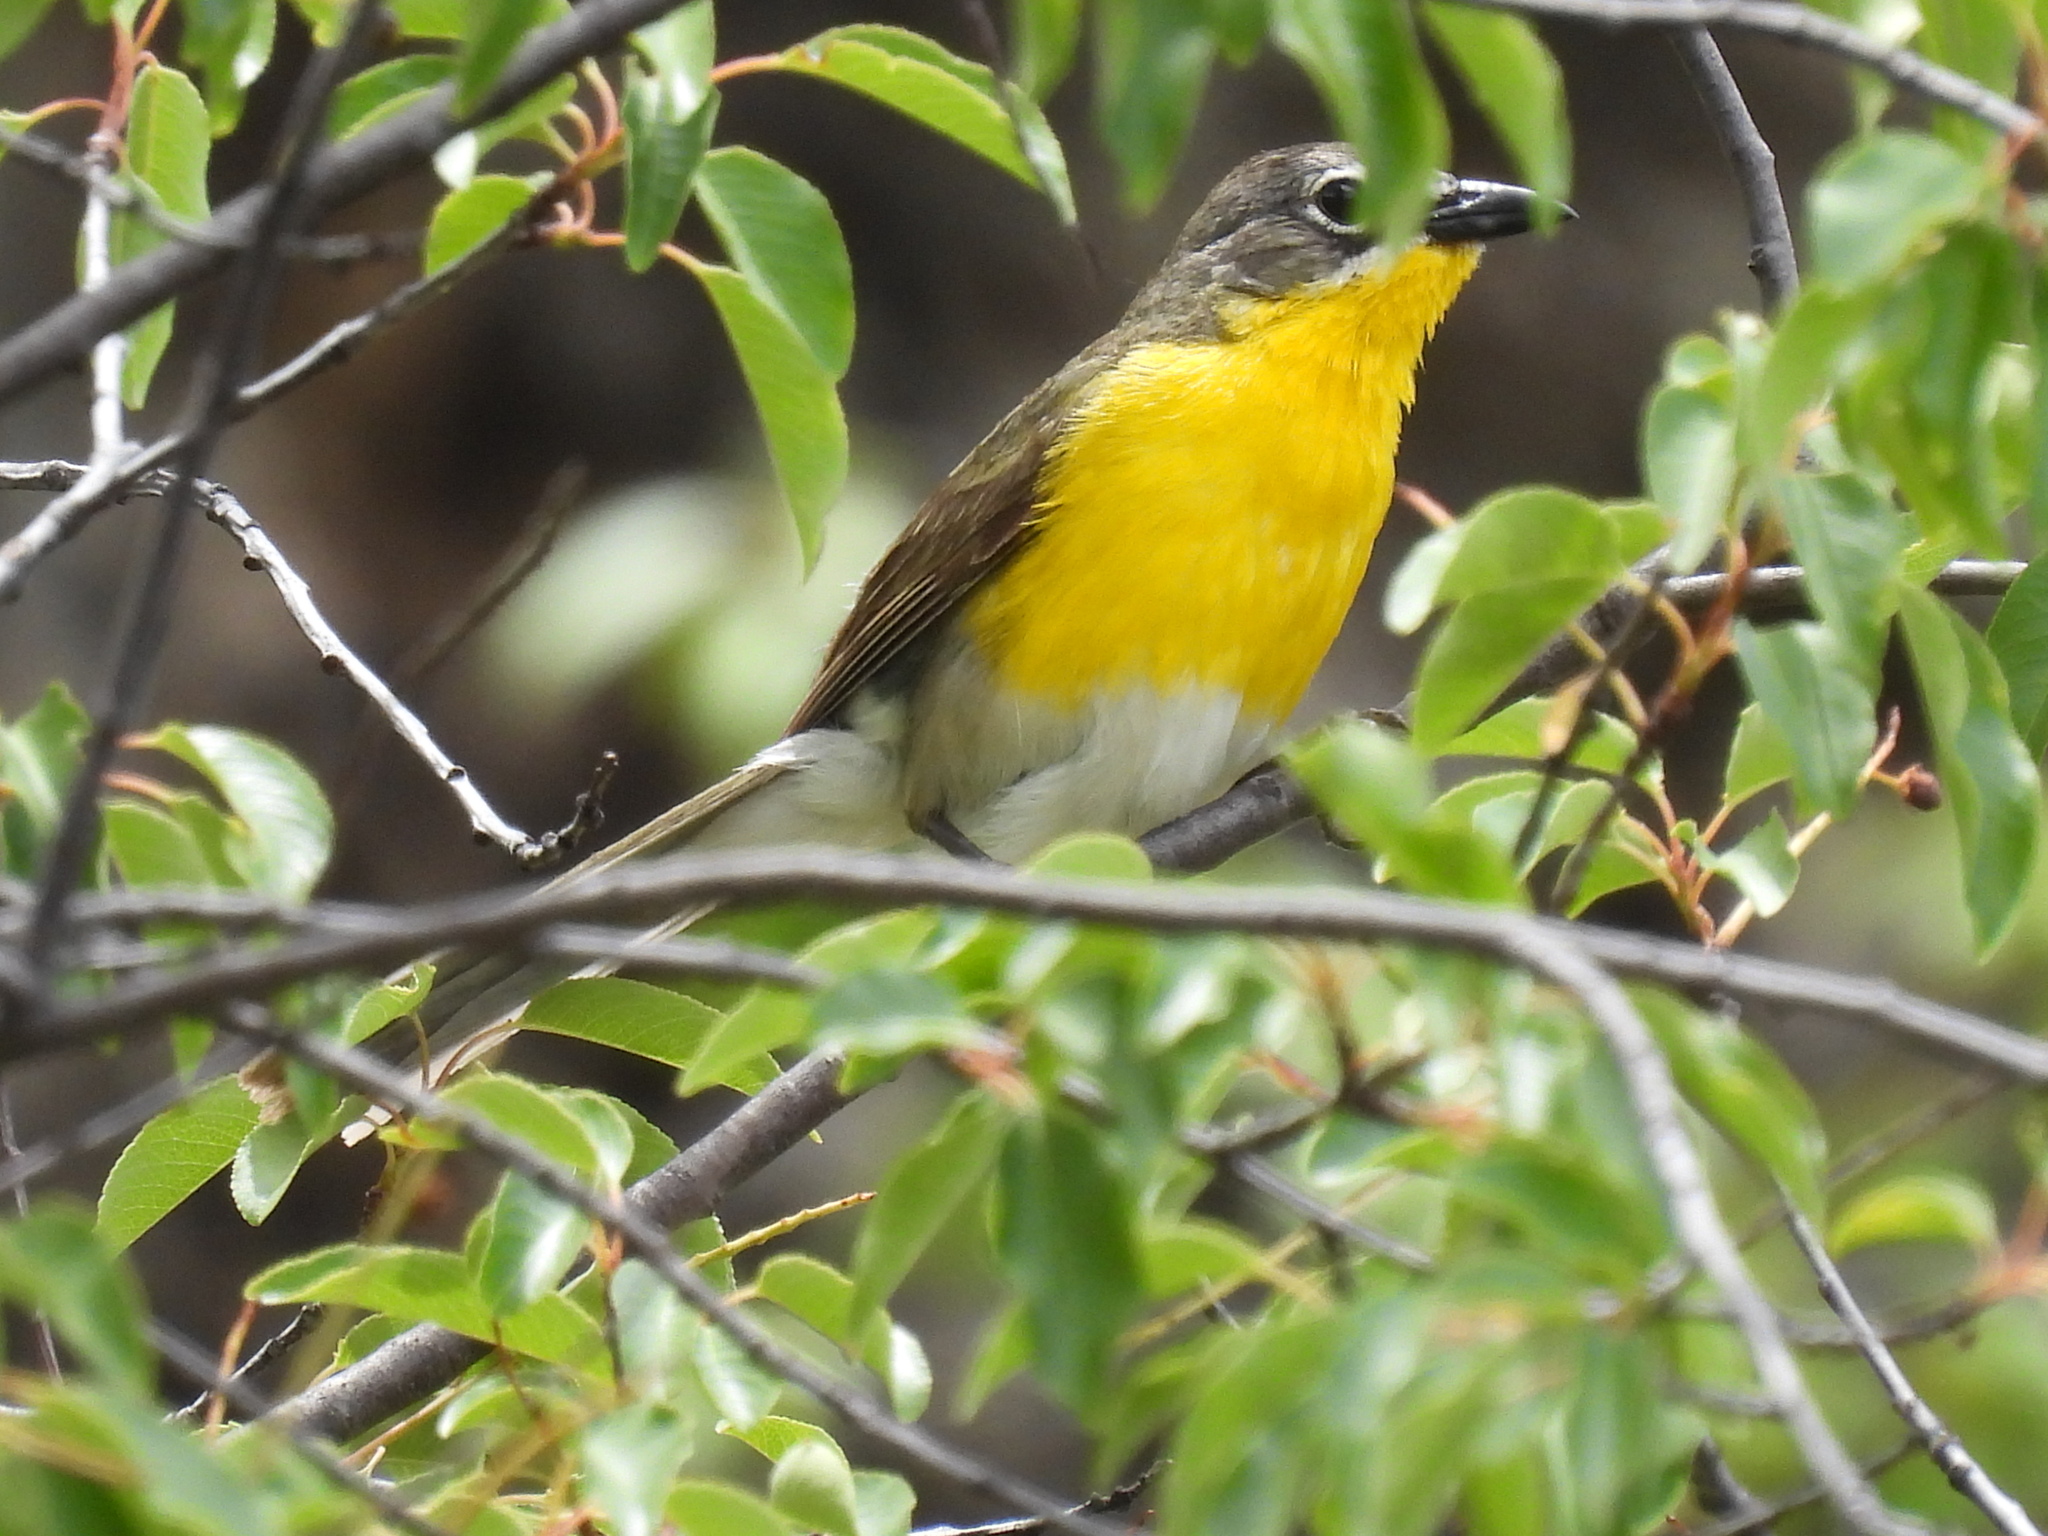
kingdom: Animalia
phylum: Chordata
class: Aves
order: Passeriformes
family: Parulidae
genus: Icteria
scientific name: Icteria virens
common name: Yellow-breasted chat
